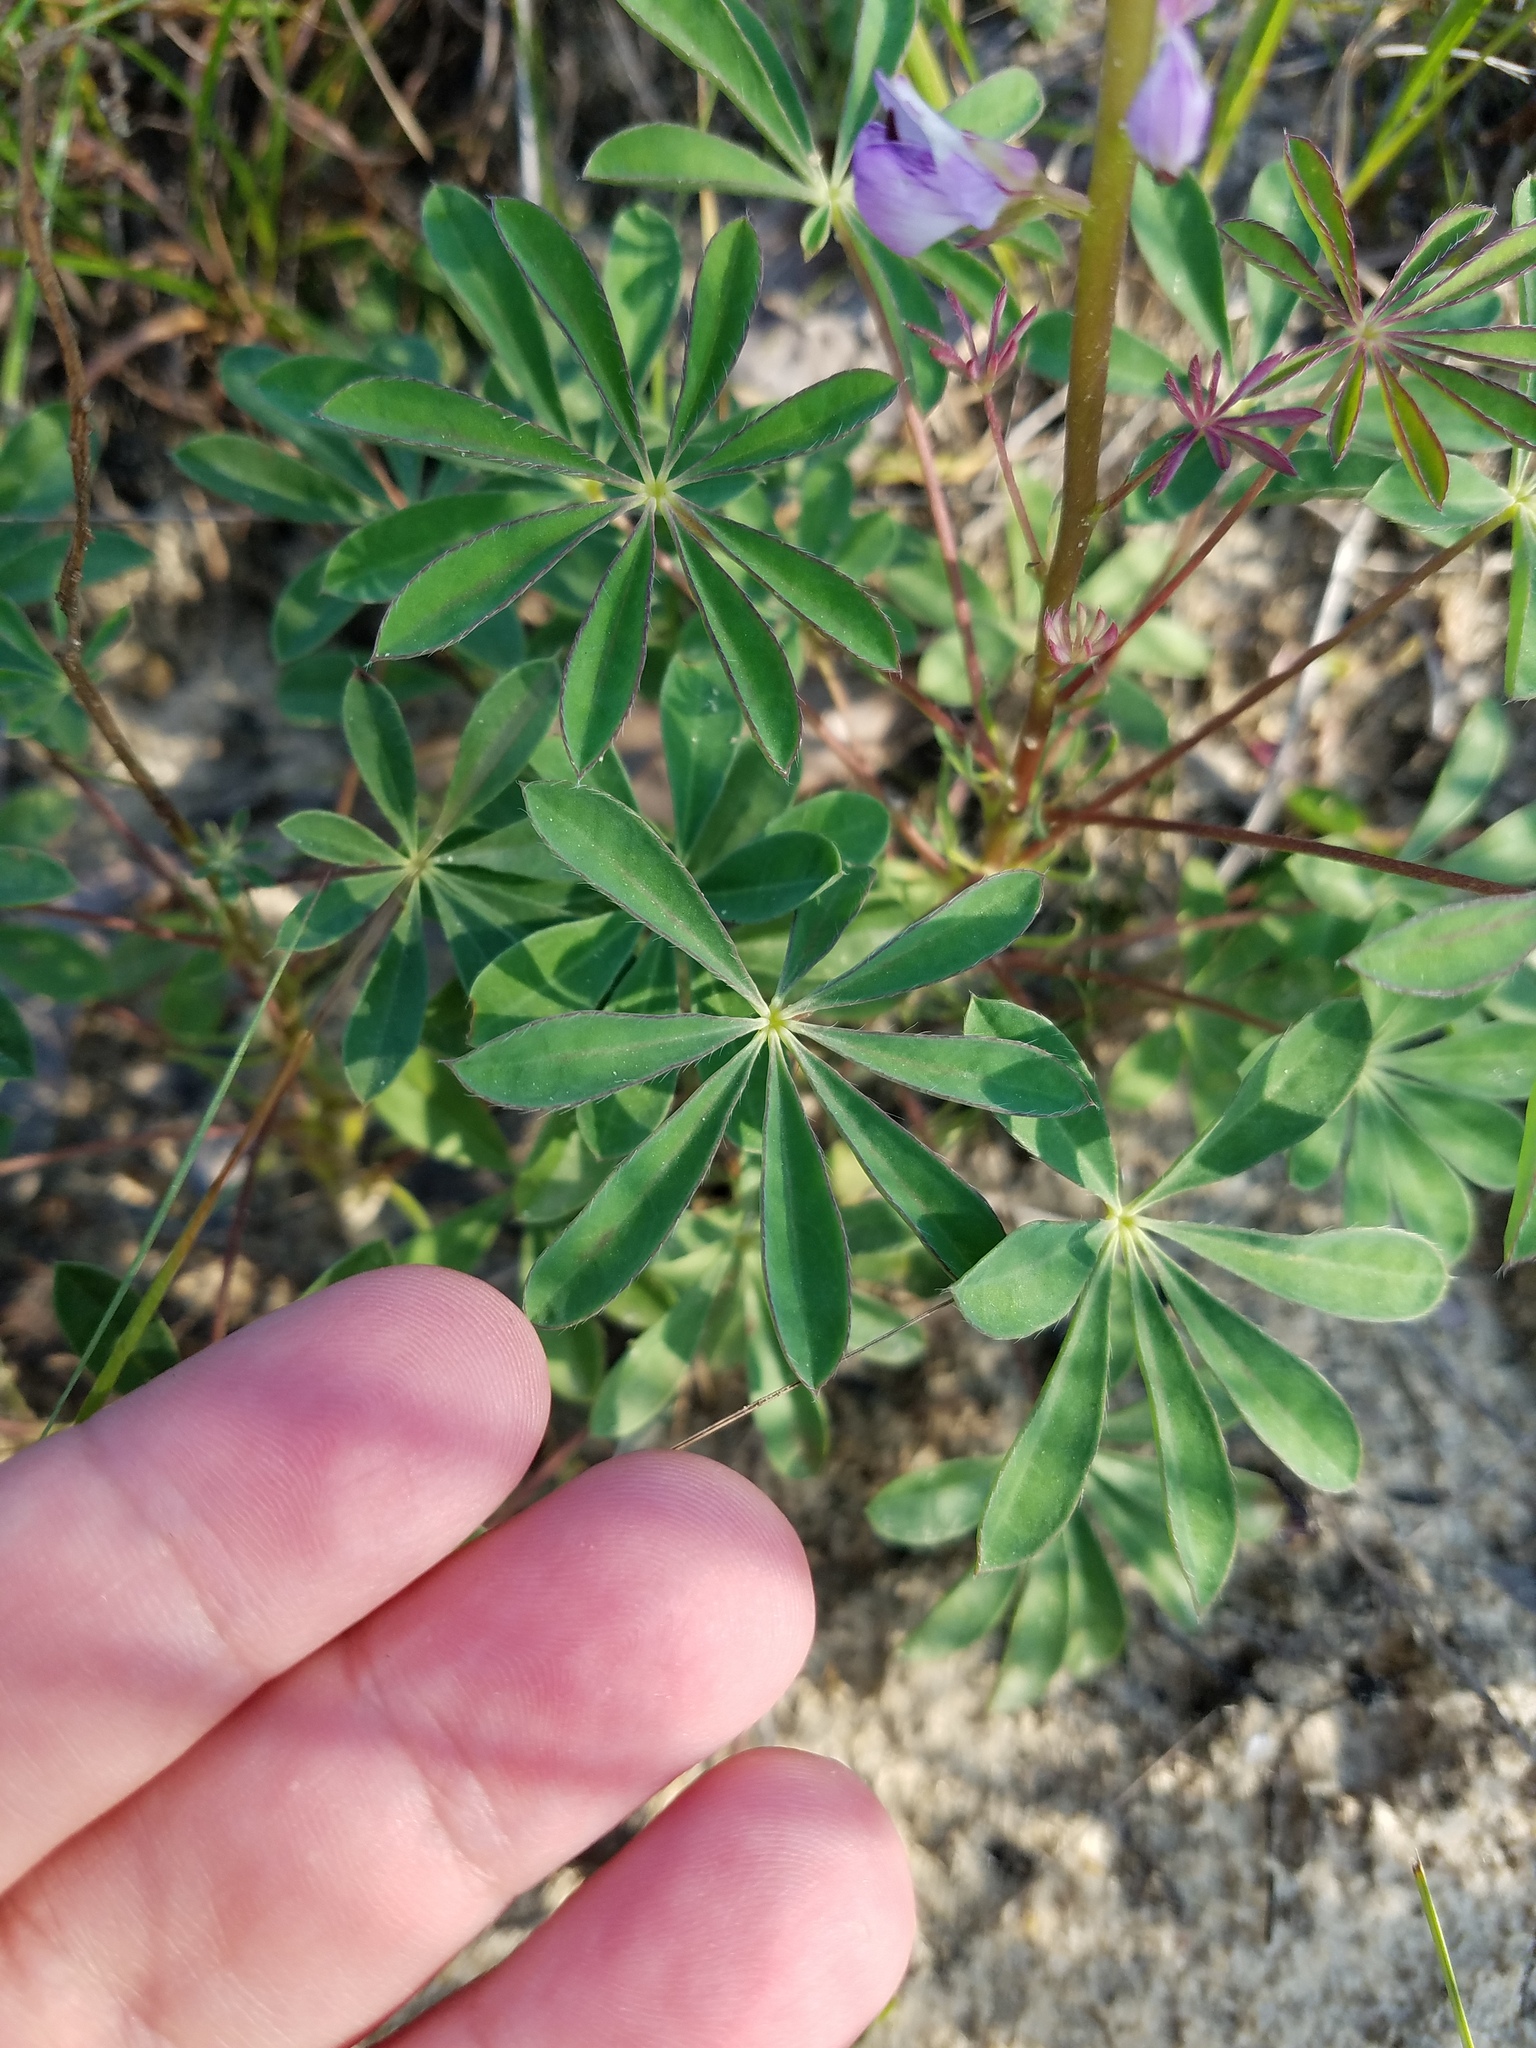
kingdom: Plantae
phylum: Tracheophyta
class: Magnoliopsida
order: Fabales
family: Fabaceae
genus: Lupinus
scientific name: Lupinus perennis
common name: Sundial lupine
